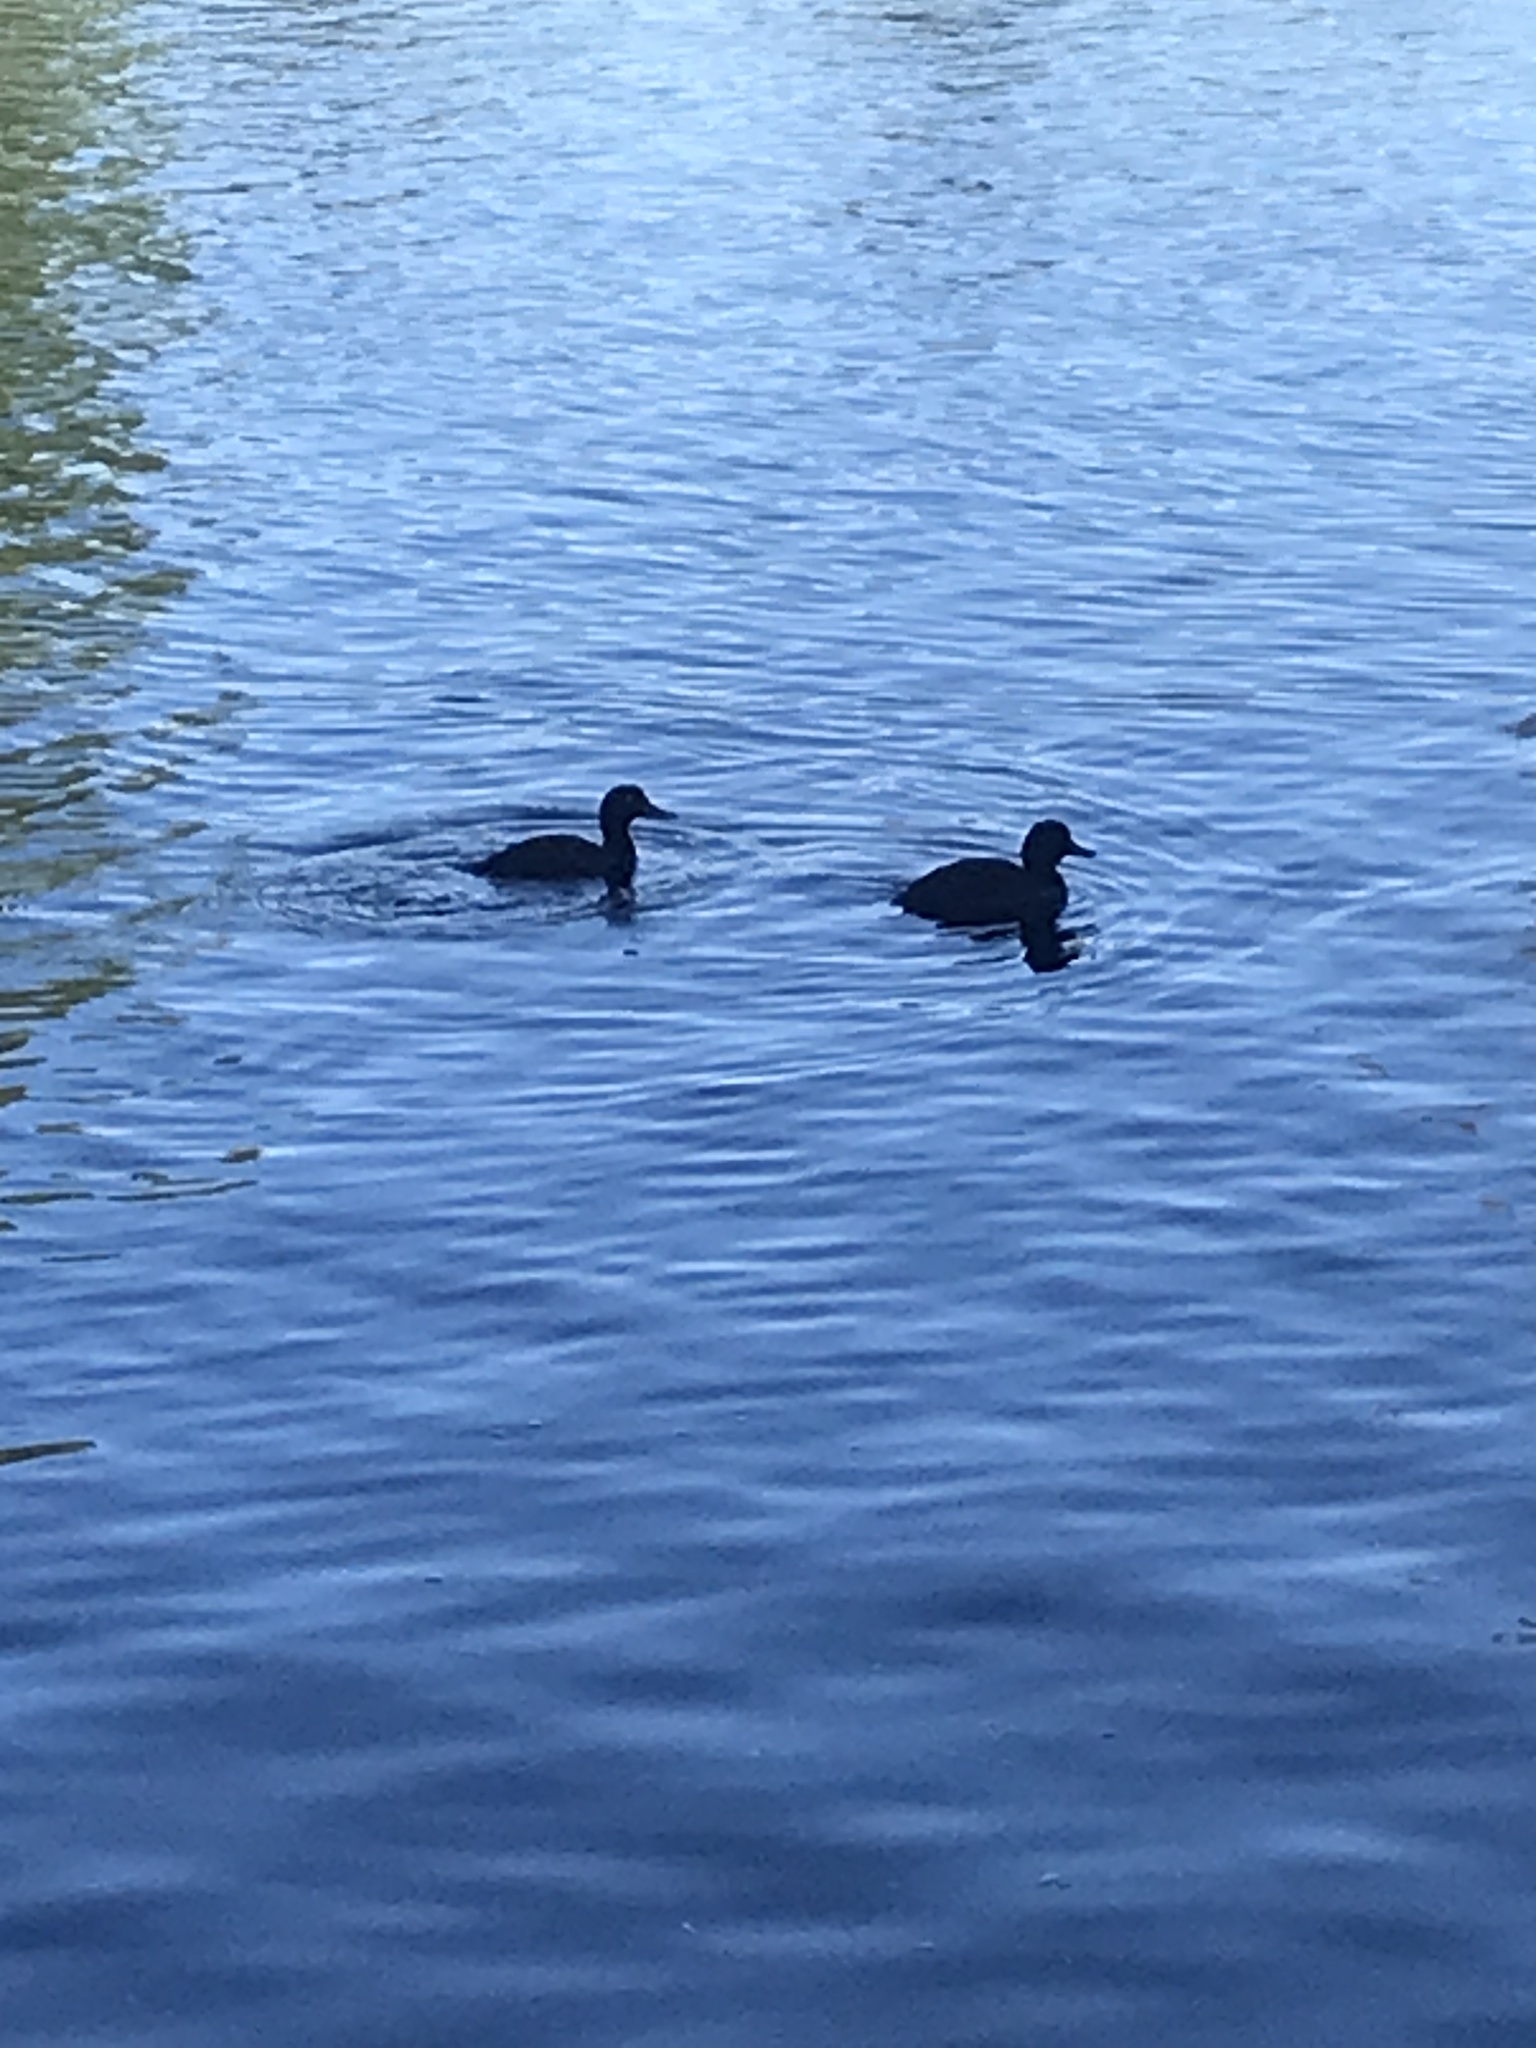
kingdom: Animalia
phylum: Chordata
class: Aves
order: Anseriformes
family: Anatidae
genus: Aythya
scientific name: Aythya novaeseelandiae
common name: New zealand scaup
